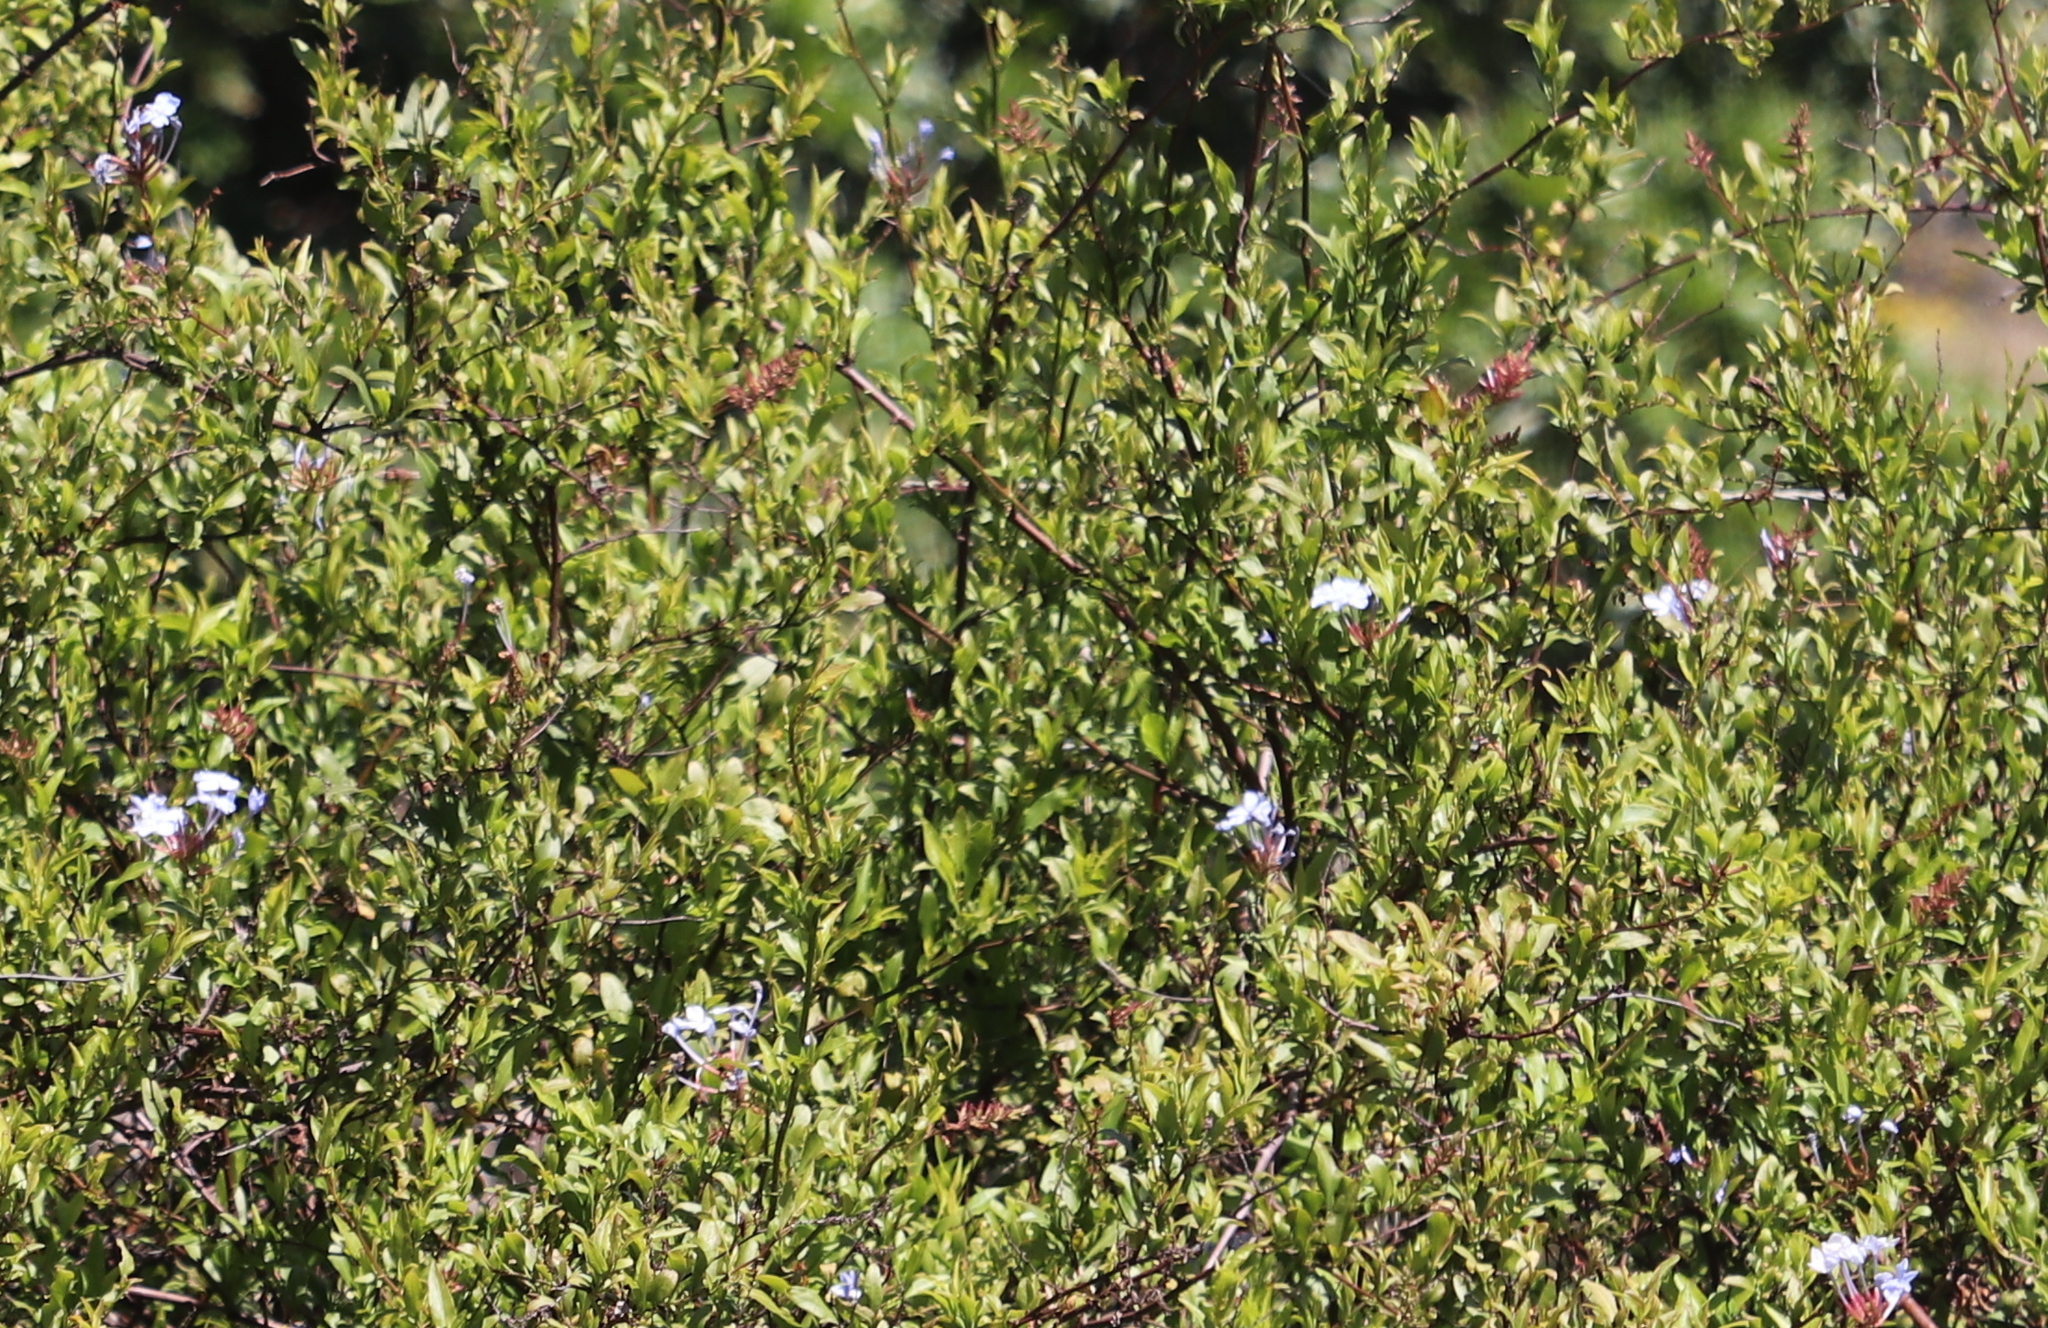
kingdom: Plantae
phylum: Tracheophyta
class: Magnoliopsida
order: Caryophyllales
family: Plumbaginaceae
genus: Plumbago
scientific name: Plumbago auriculata
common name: Cape leadwort
